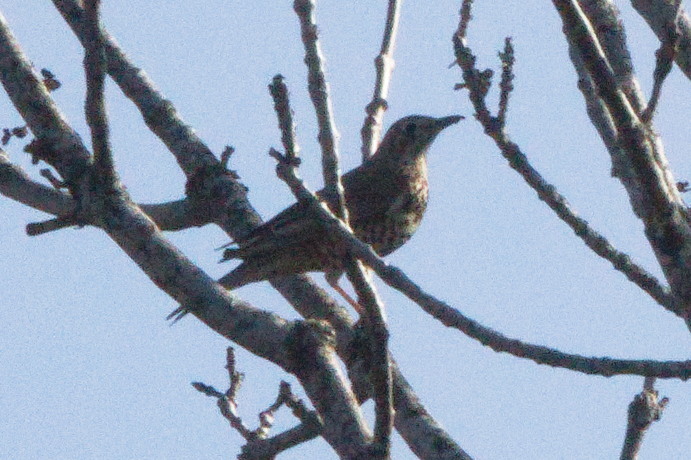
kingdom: Animalia
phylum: Chordata
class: Aves
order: Passeriformes
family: Turdidae
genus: Turdus
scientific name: Turdus viscivorus
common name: Mistle thrush
